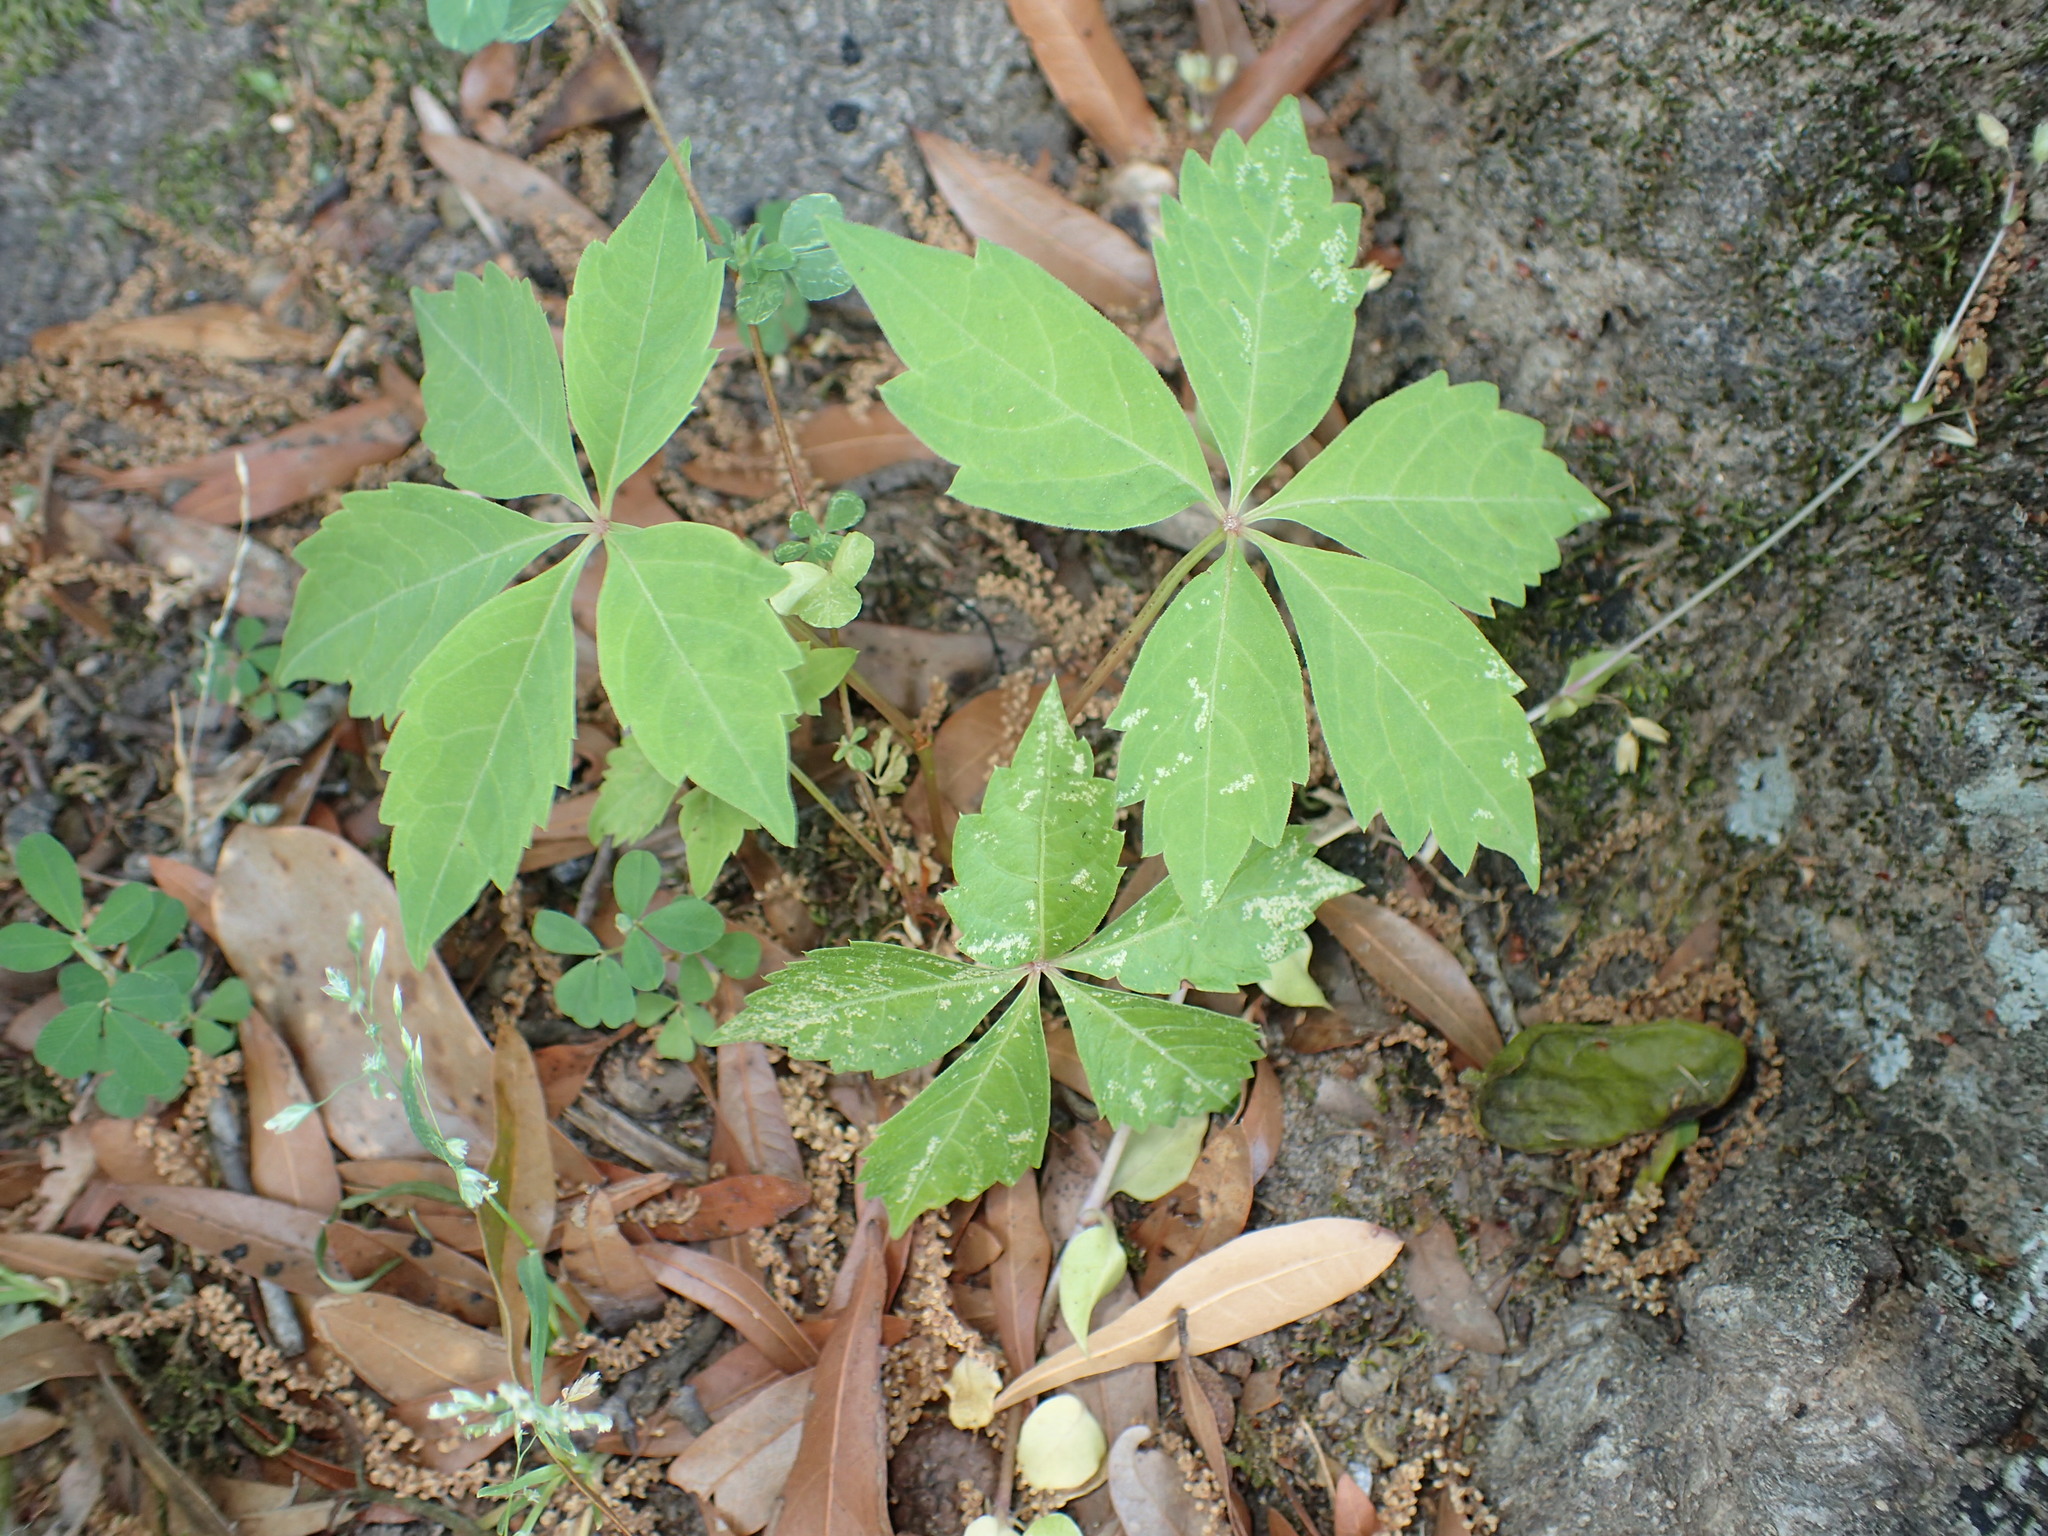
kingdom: Plantae
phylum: Tracheophyta
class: Magnoliopsida
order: Vitales
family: Vitaceae
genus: Parthenocissus
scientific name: Parthenocissus quinquefolia
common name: Virginia-creeper
